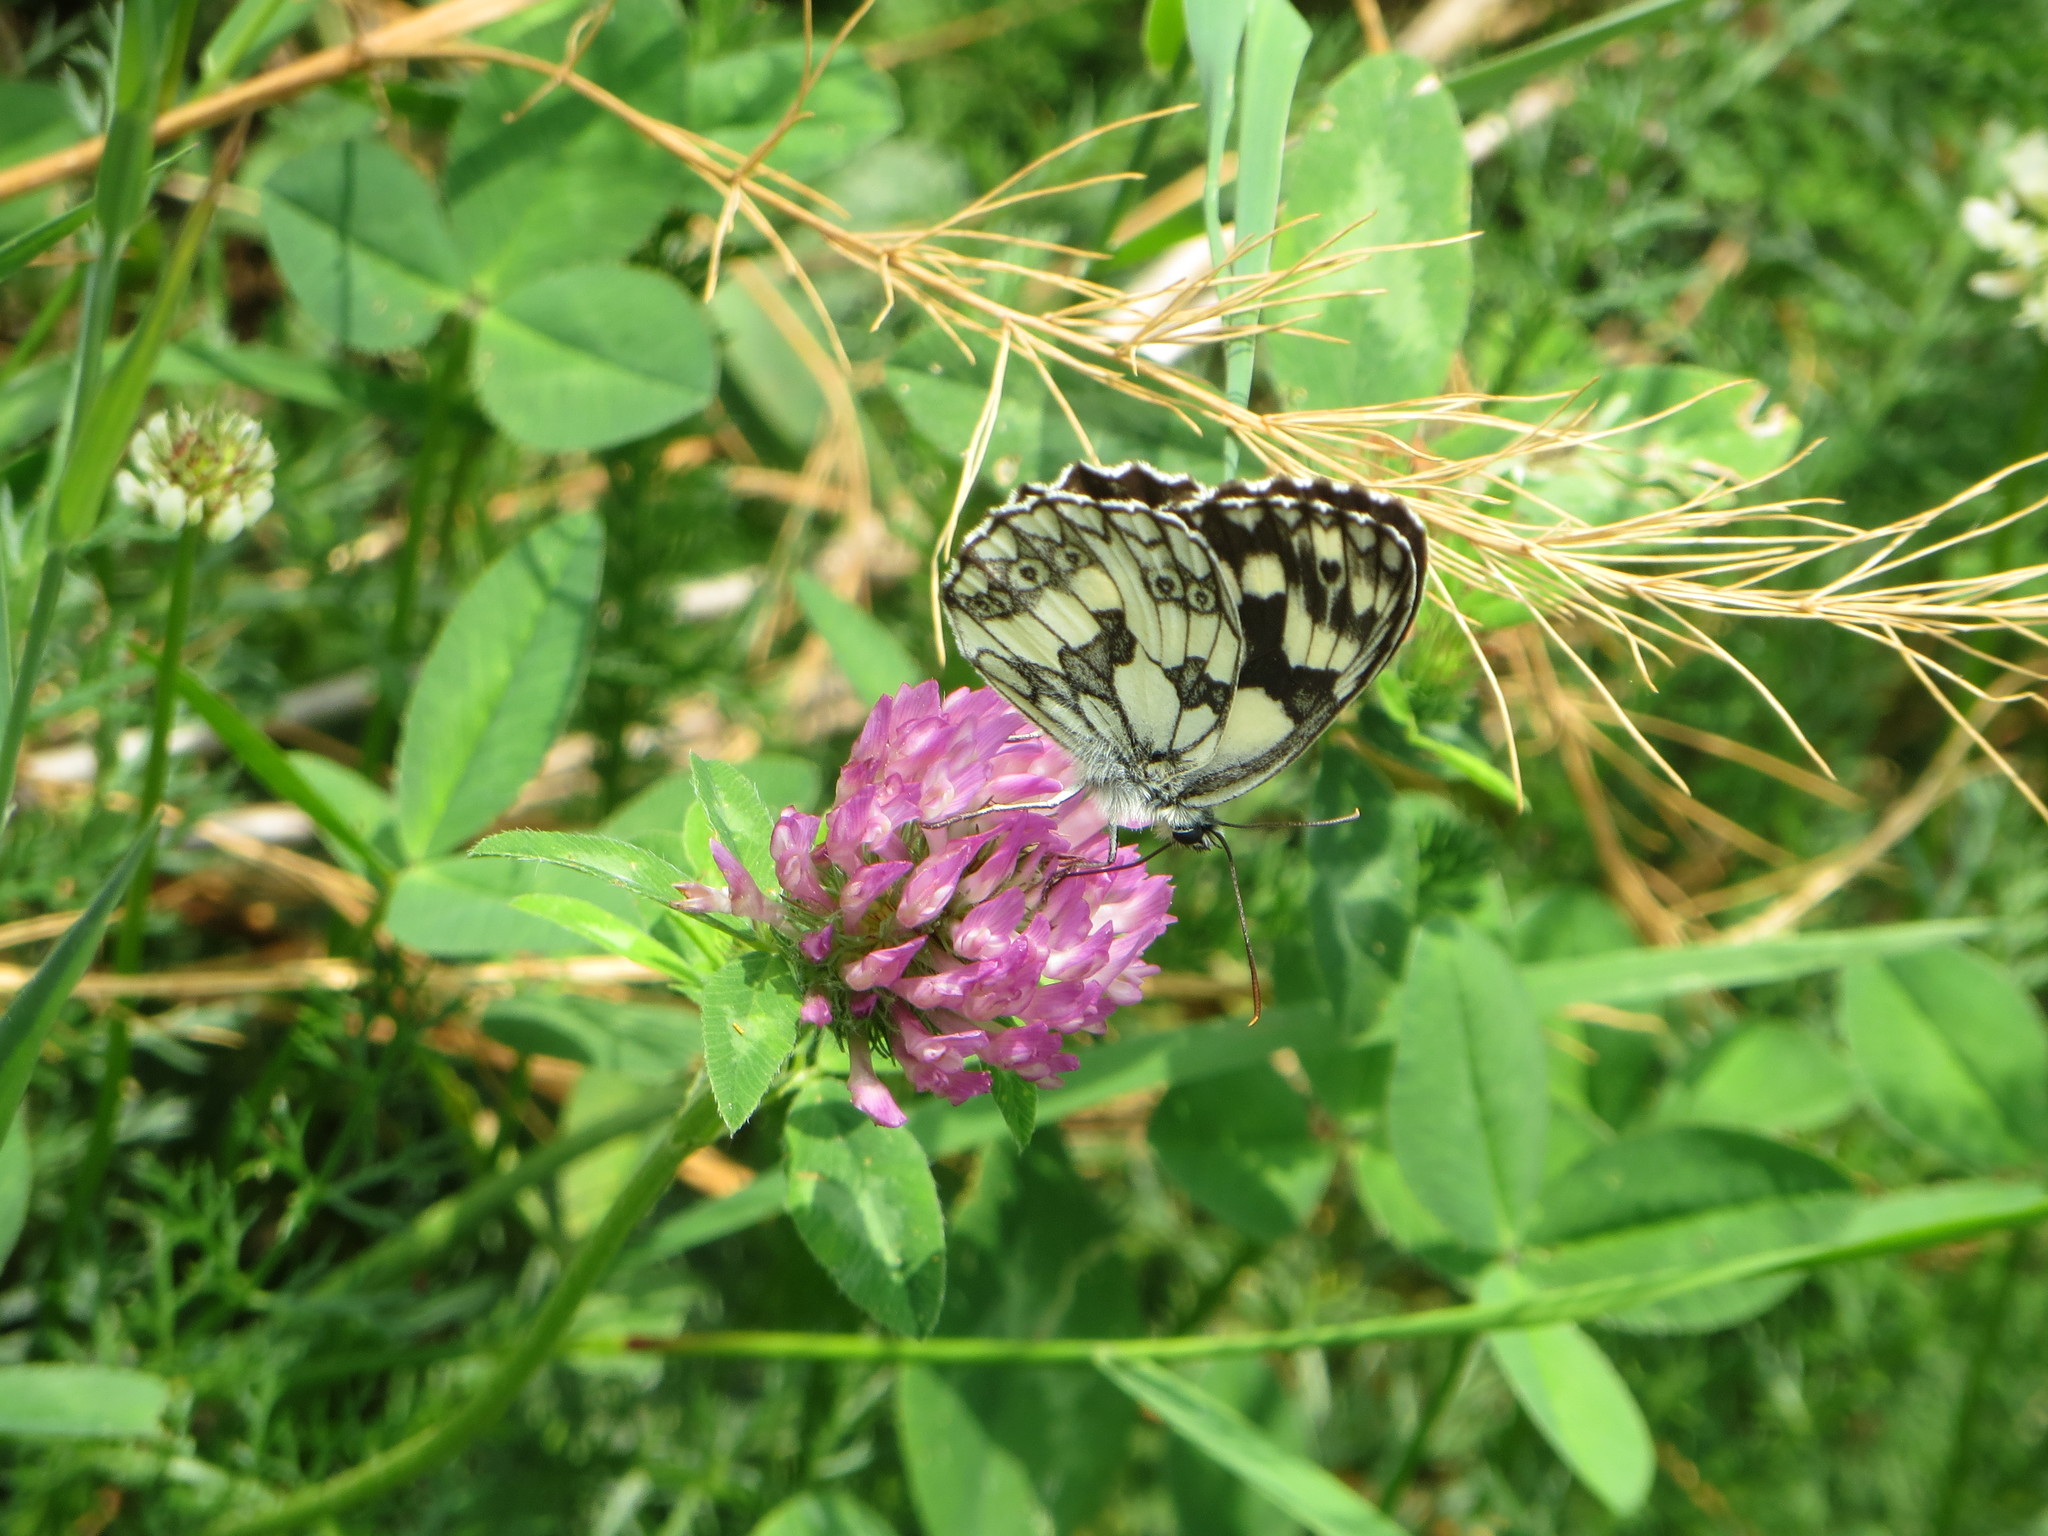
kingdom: Animalia
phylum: Arthropoda
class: Insecta
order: Lepidoptera
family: Nymphalidae
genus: Melanargia
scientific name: Melanargia galathea
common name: Marbled white
